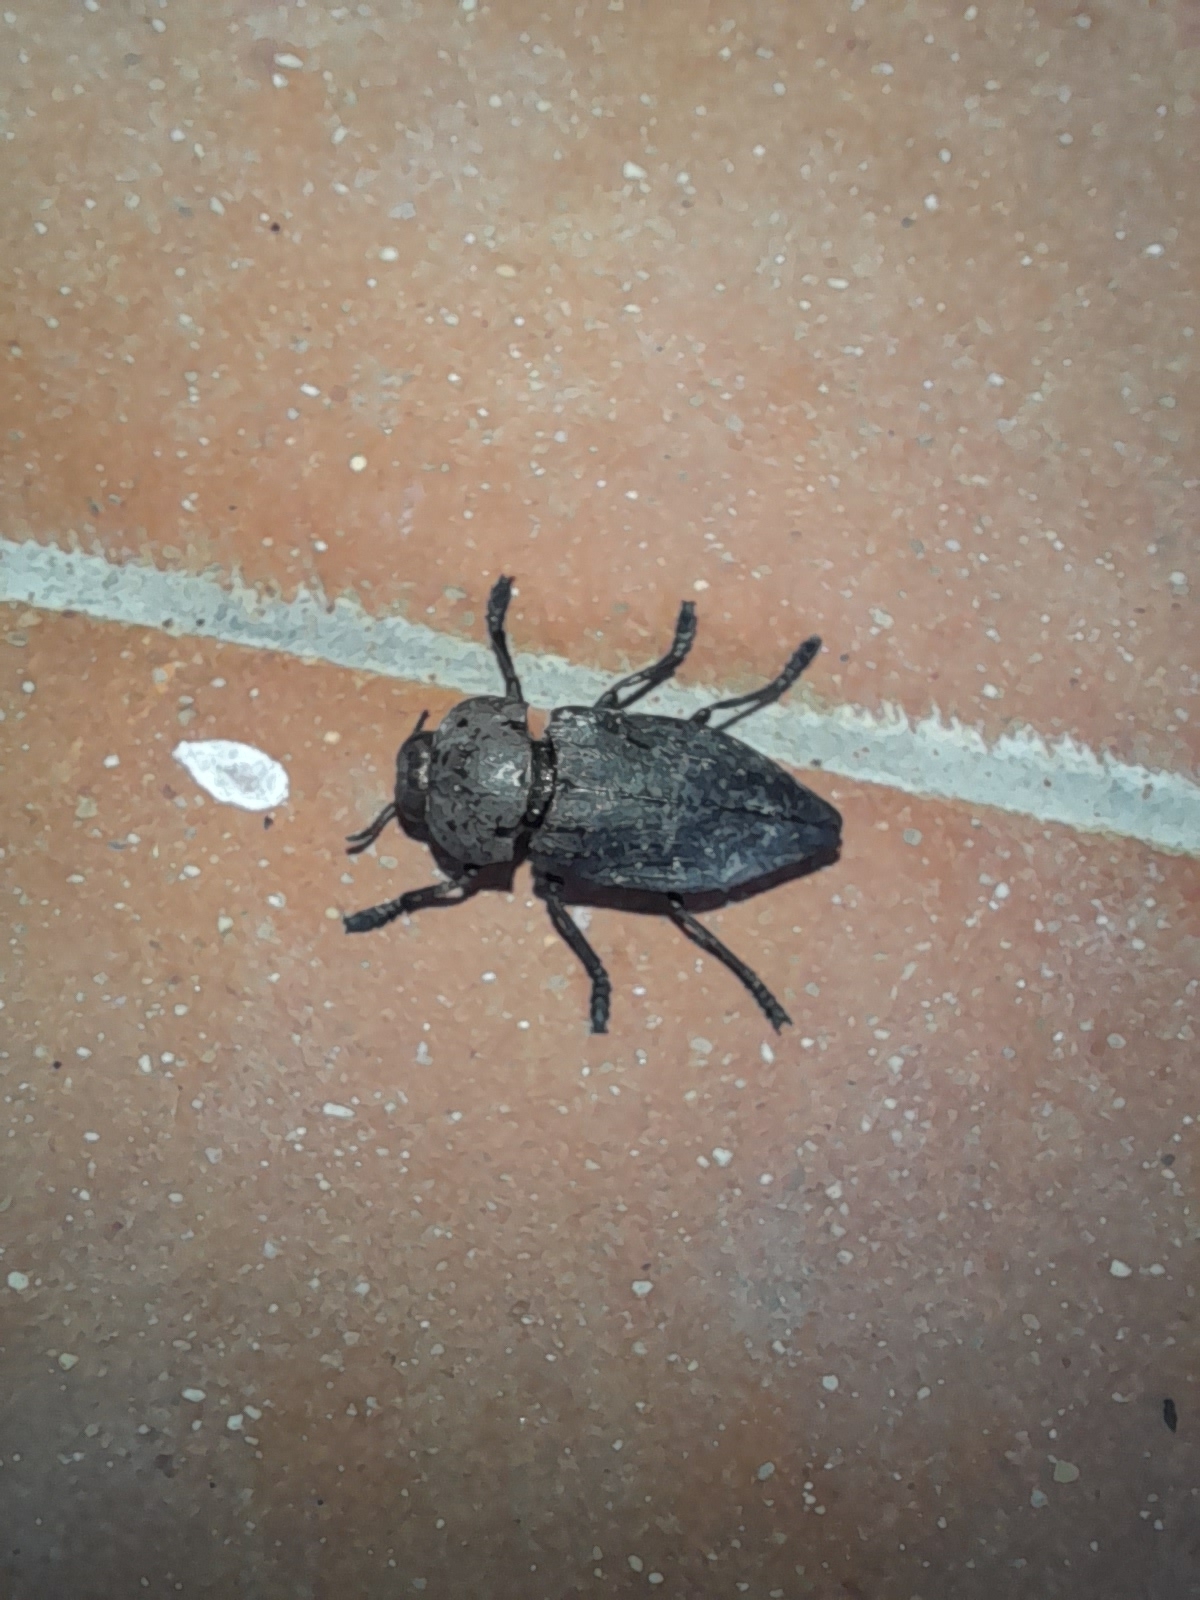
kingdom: Animalia
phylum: Arthropoda
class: Insecta
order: Coleoptera
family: Buprestidae
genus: Capnodis
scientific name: Capnodis tenebricosa
